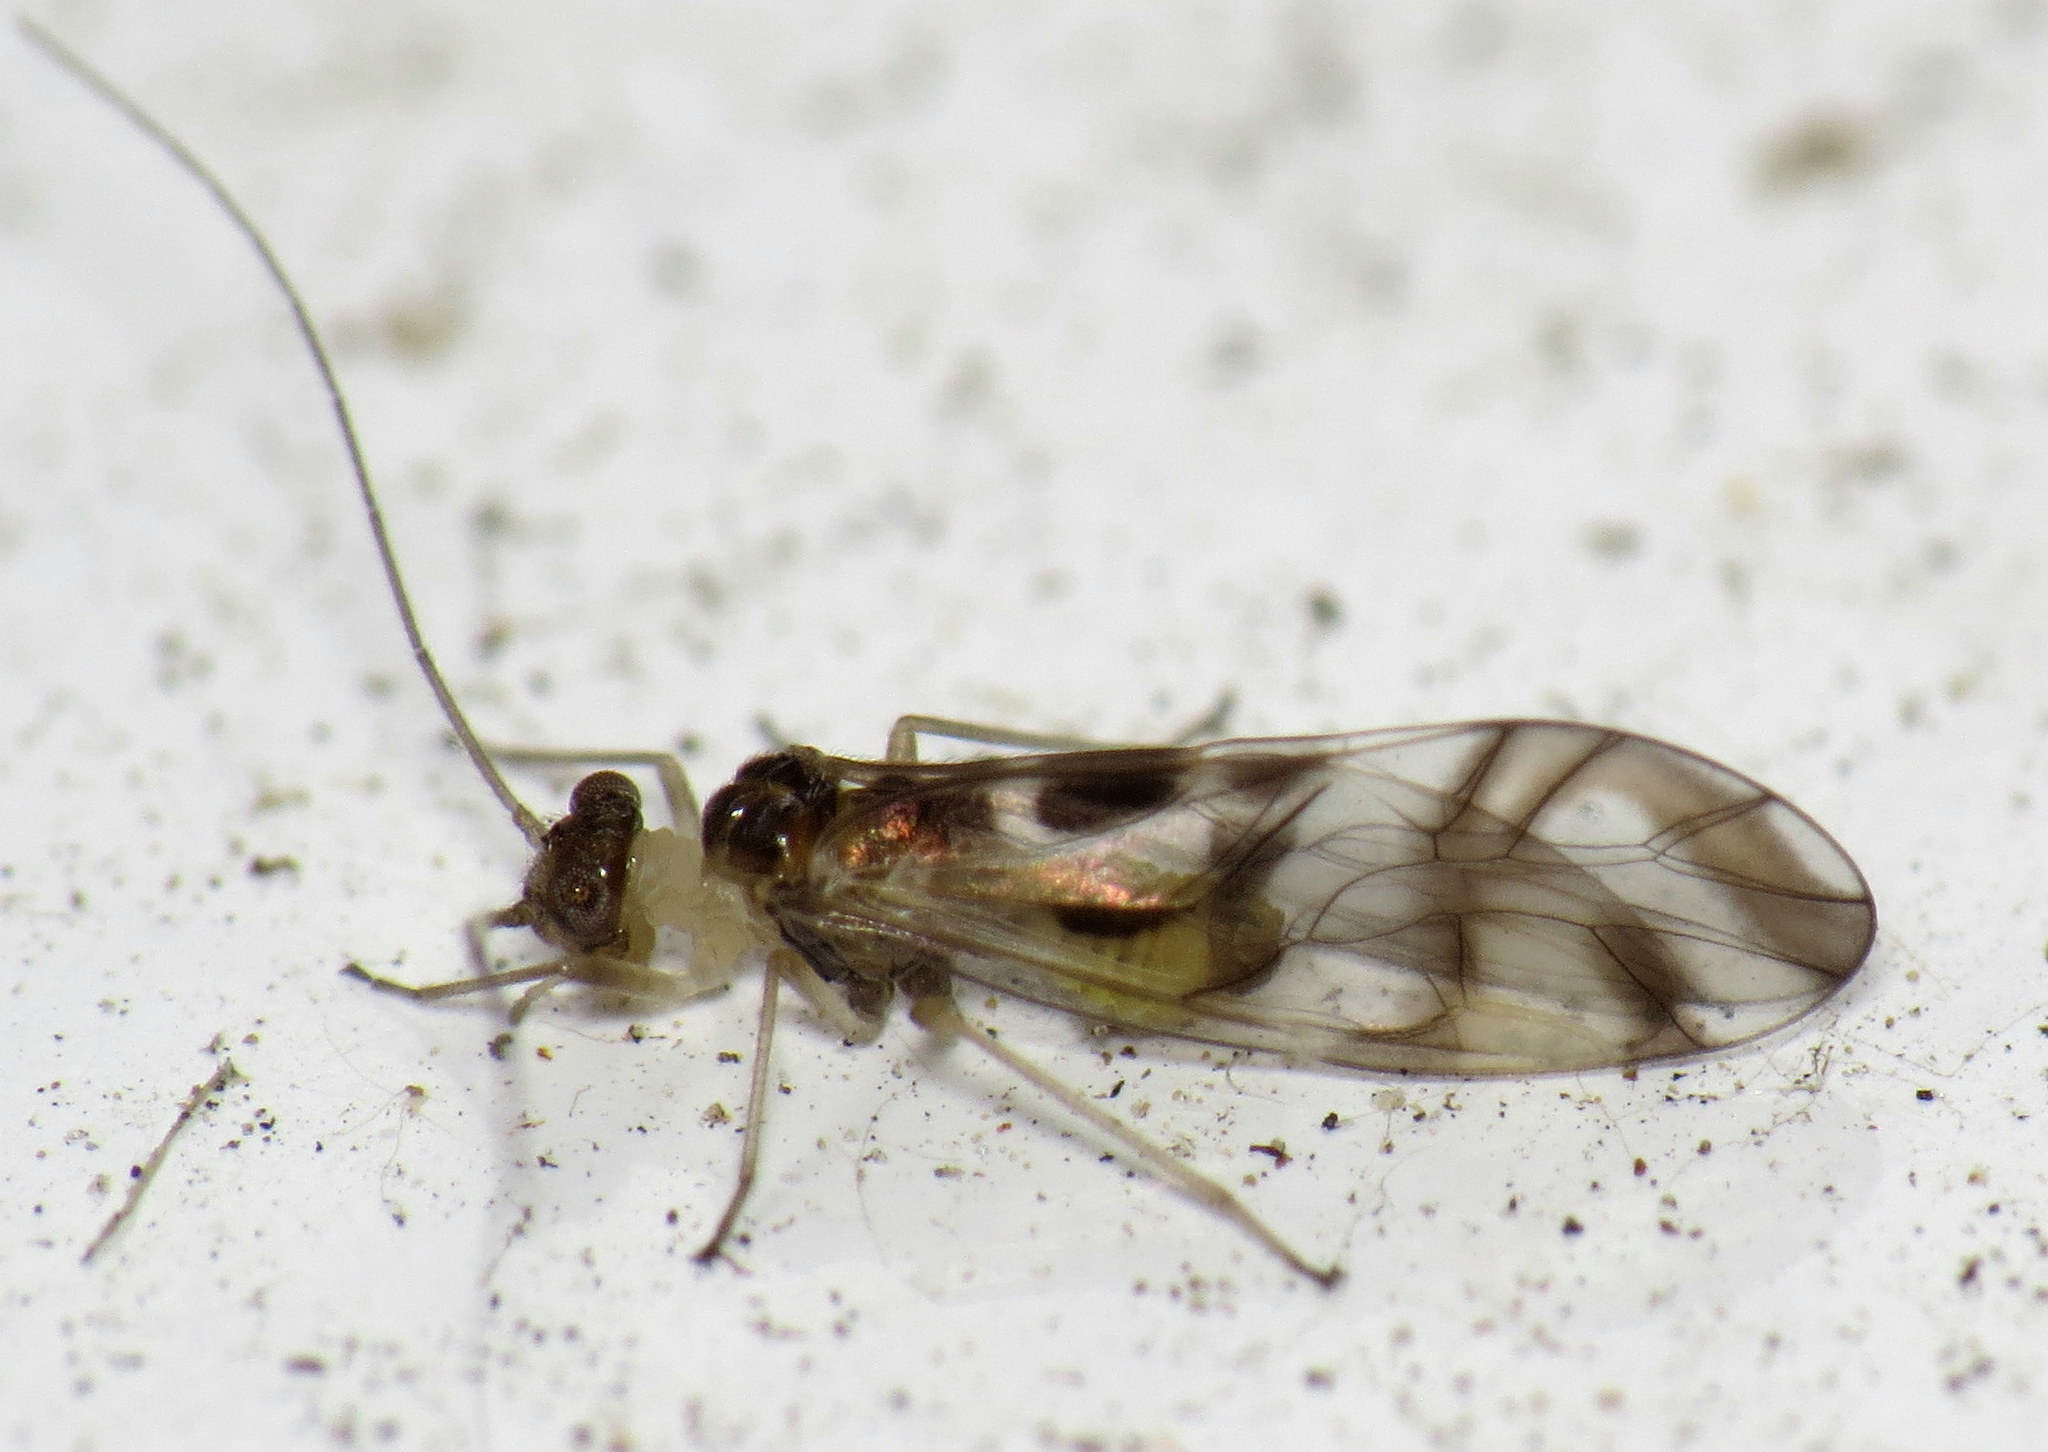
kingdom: Animalia
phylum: Arthropoda
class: Insecta
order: Psocodea
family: Stenopsocidae
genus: Graphopsocus
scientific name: Graphopsocus cruciatus
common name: Lizard bark louse
